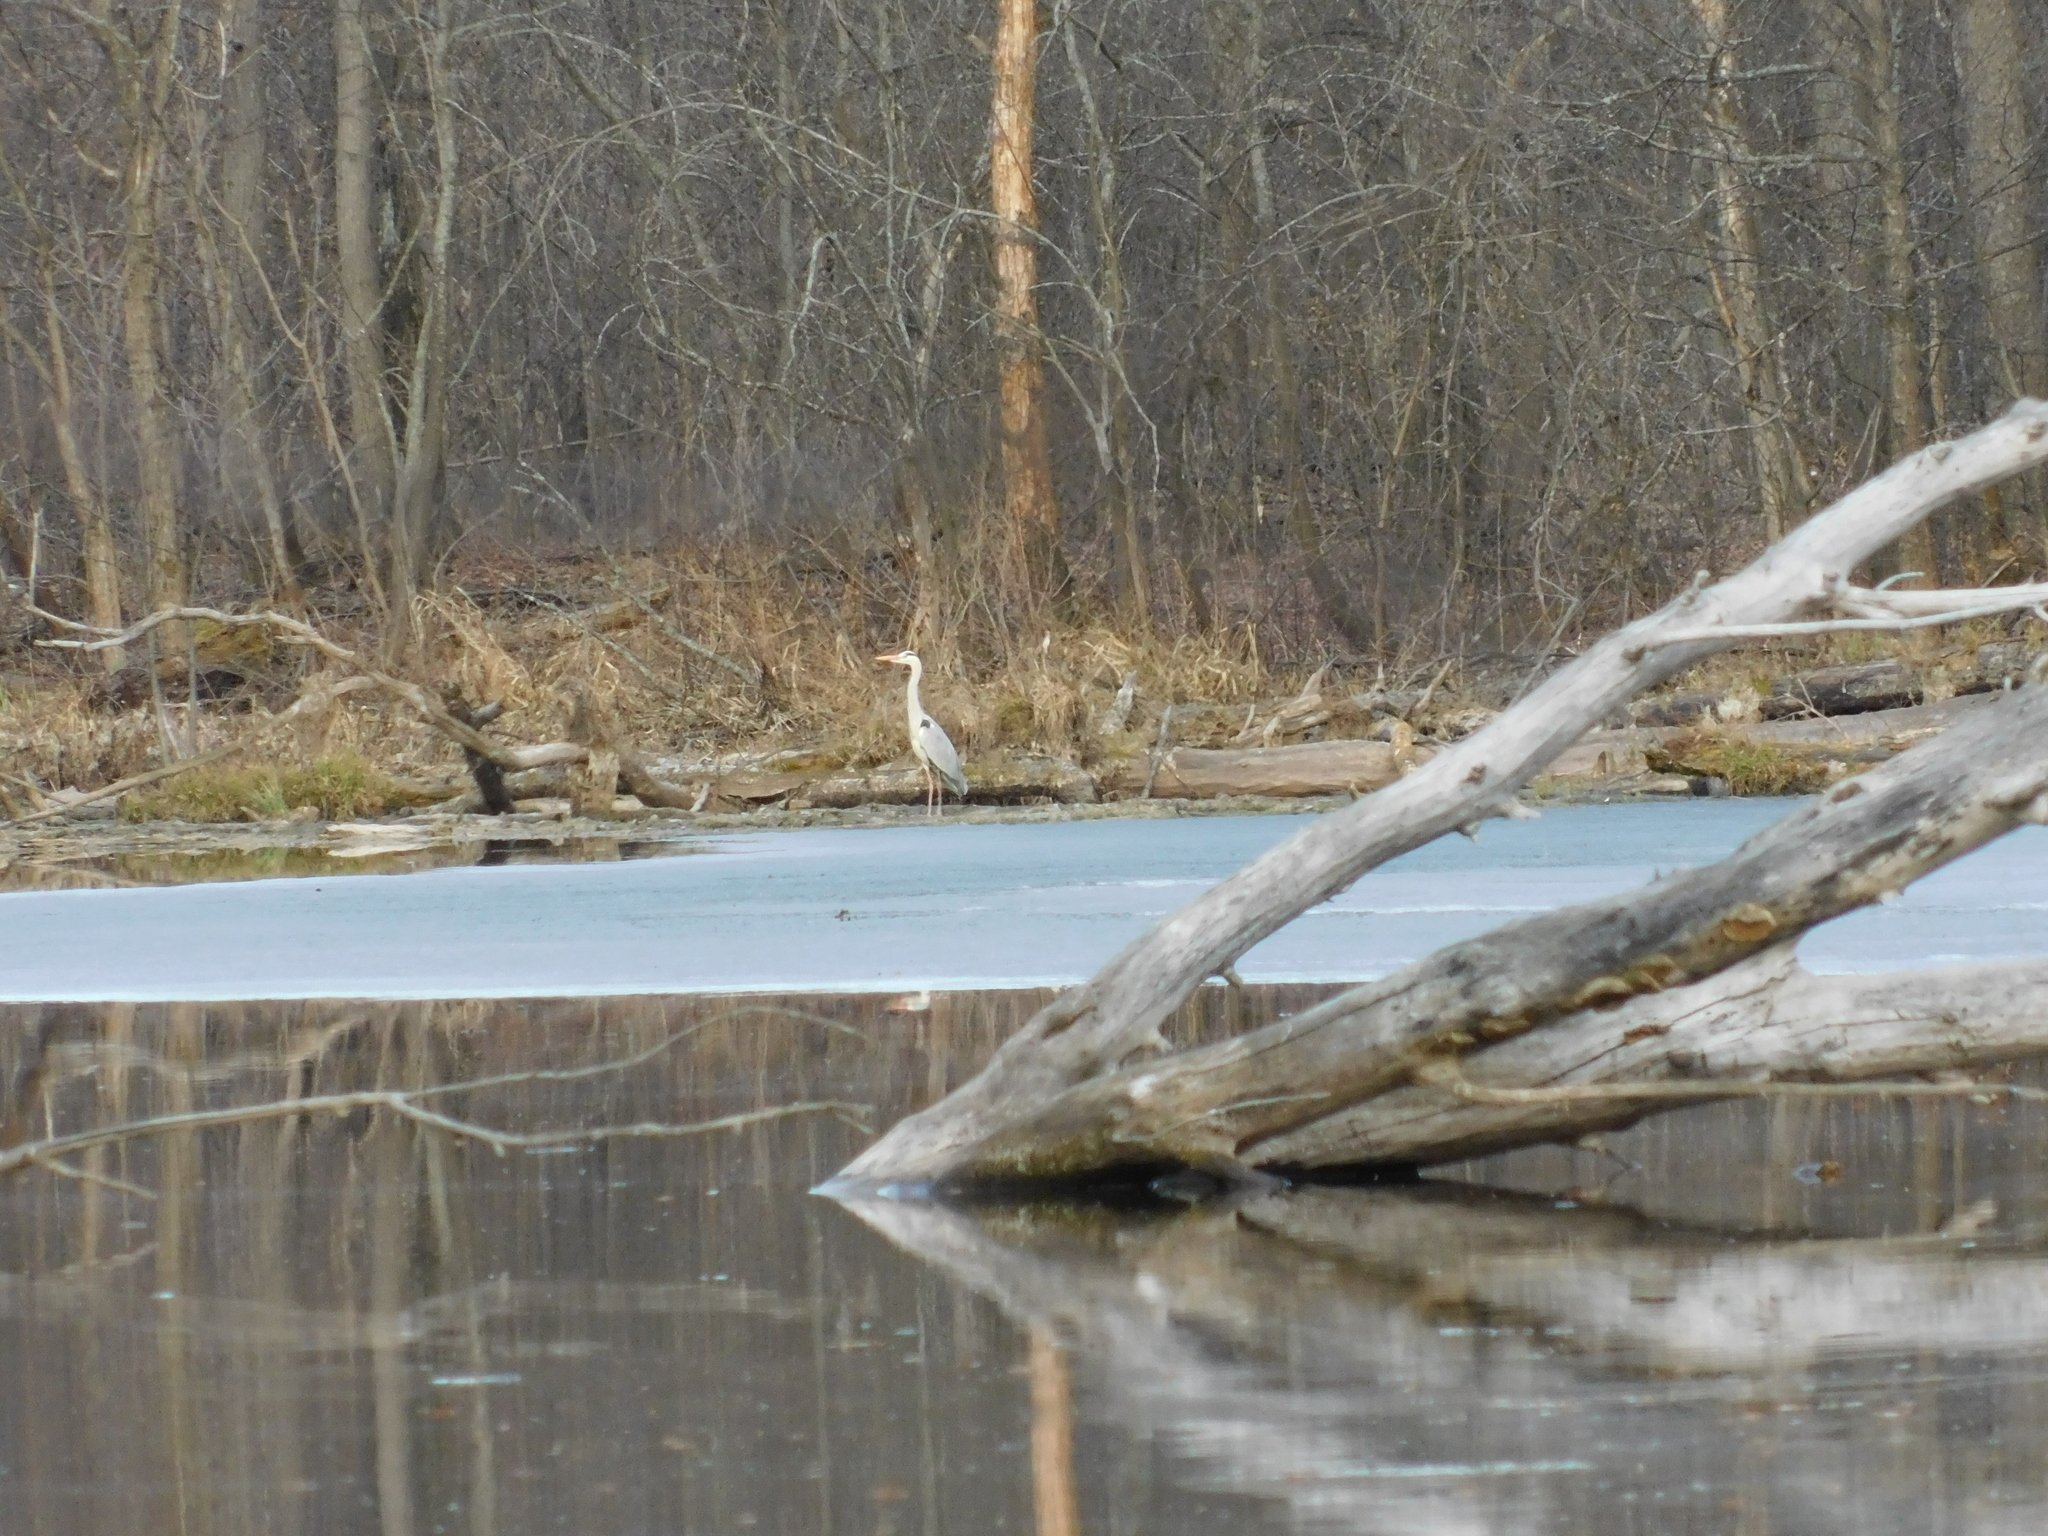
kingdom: Animalia
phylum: Chordata
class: Aves
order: Pelecaniformes
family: Ardeidae
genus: Ardea
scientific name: Ardea cinerea
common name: Grey heron
